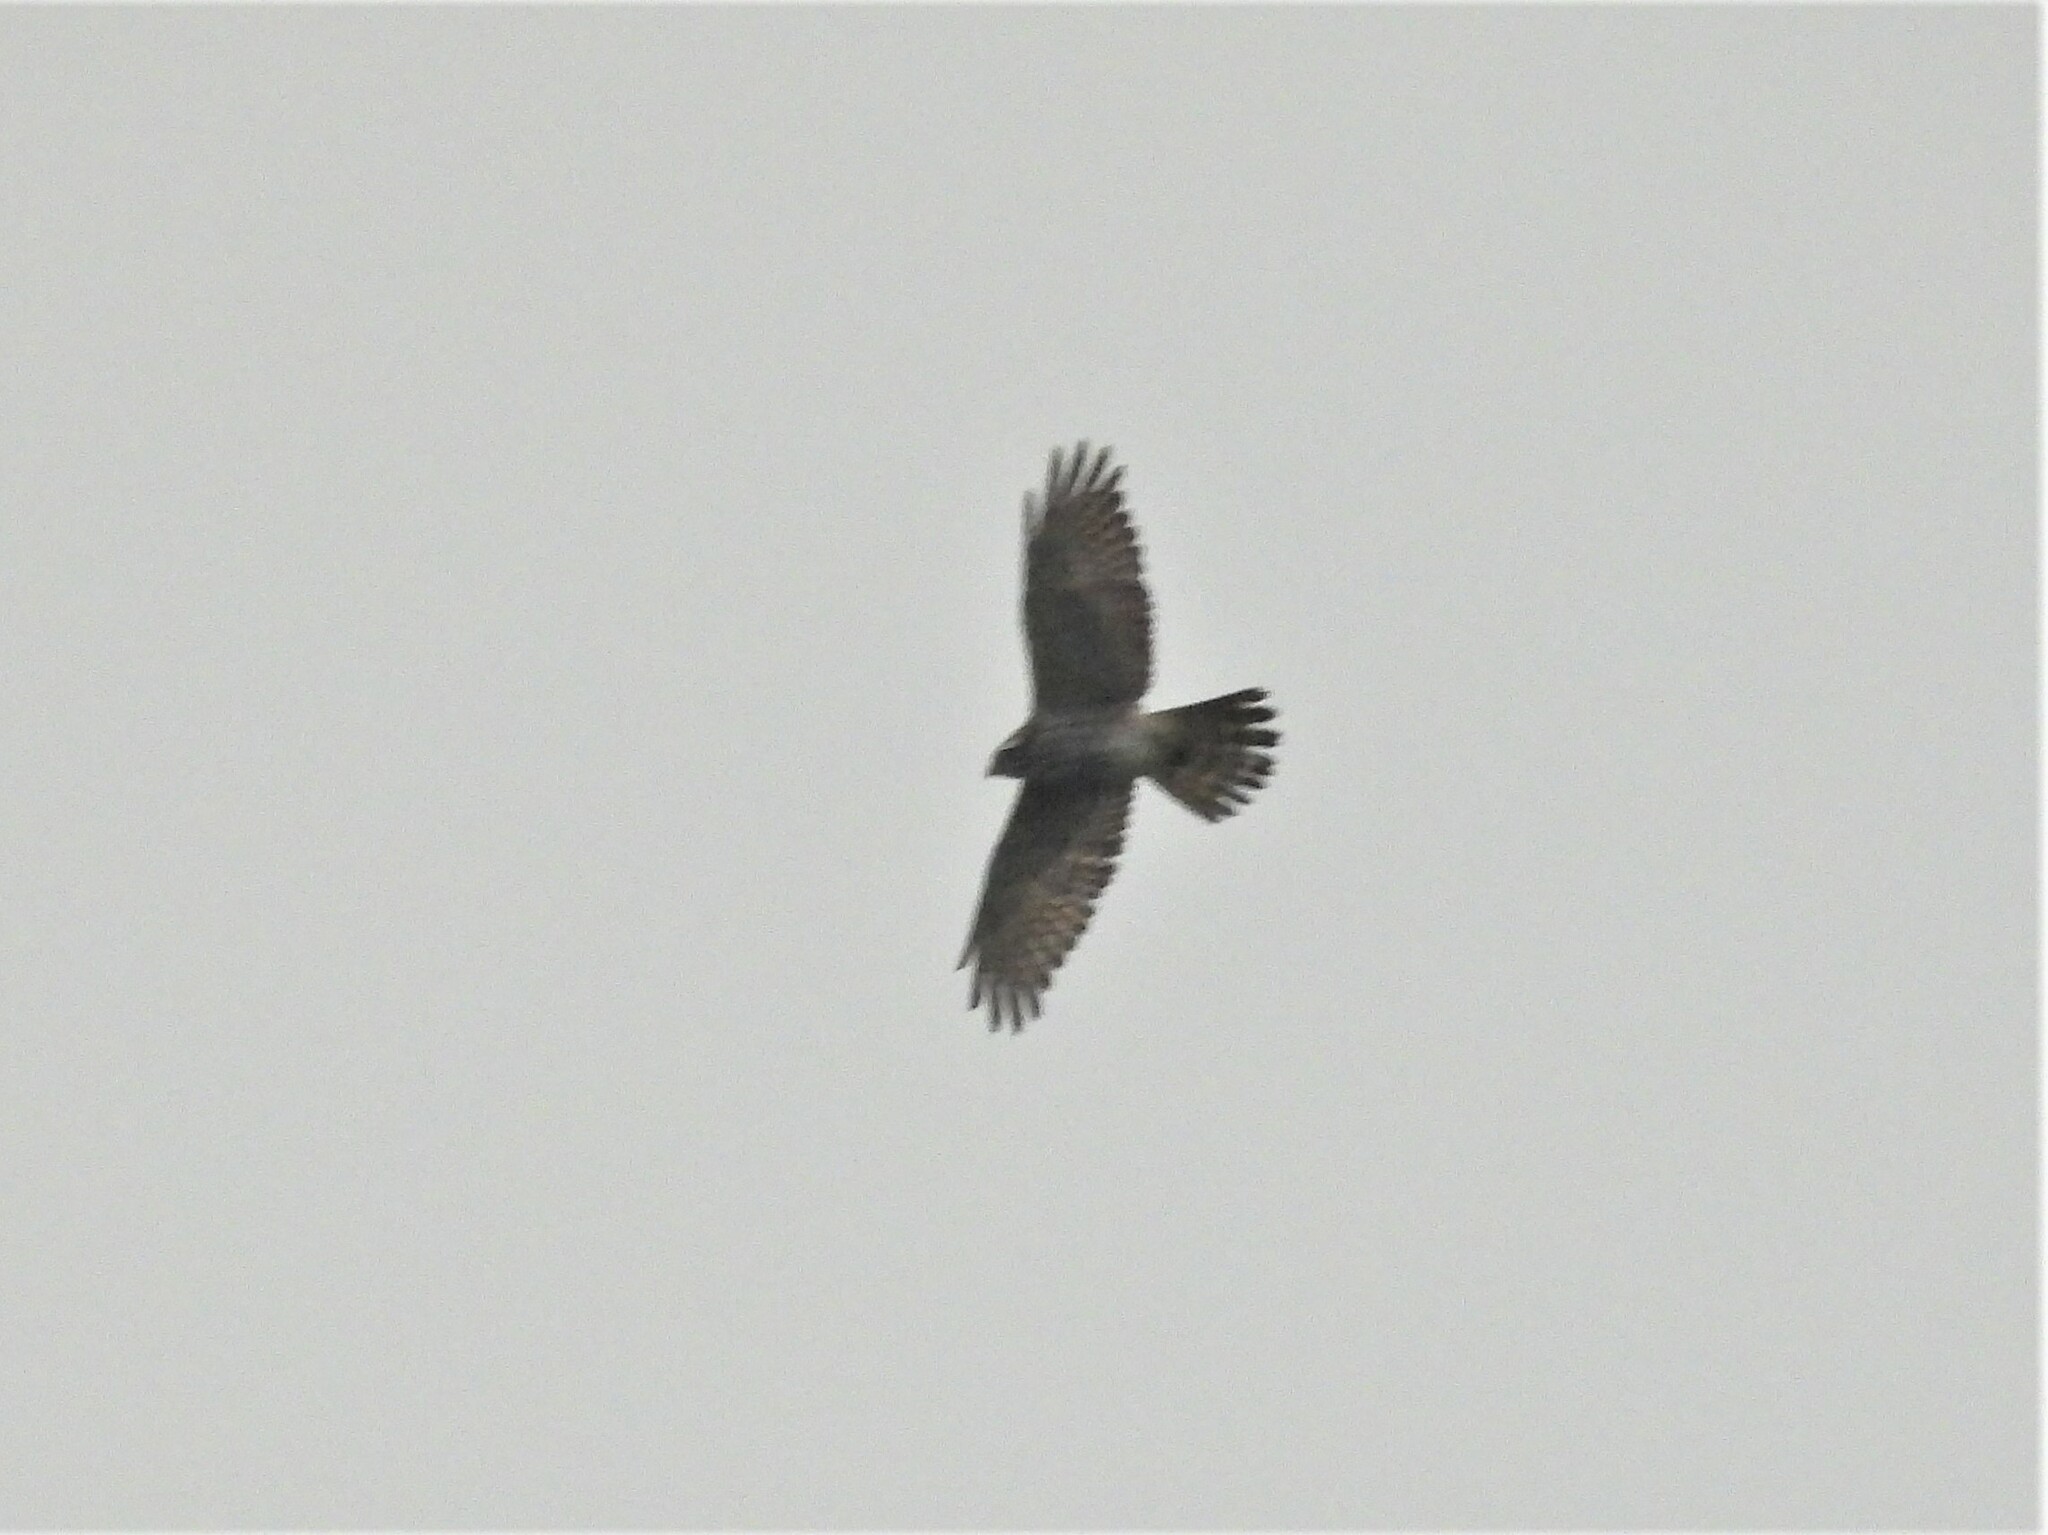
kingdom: Animalia
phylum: Chordata
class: Aves
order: Accipitriformes
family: Accipitridae
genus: Butastur
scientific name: Butastur indicus
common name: Grey-faced buzzard
